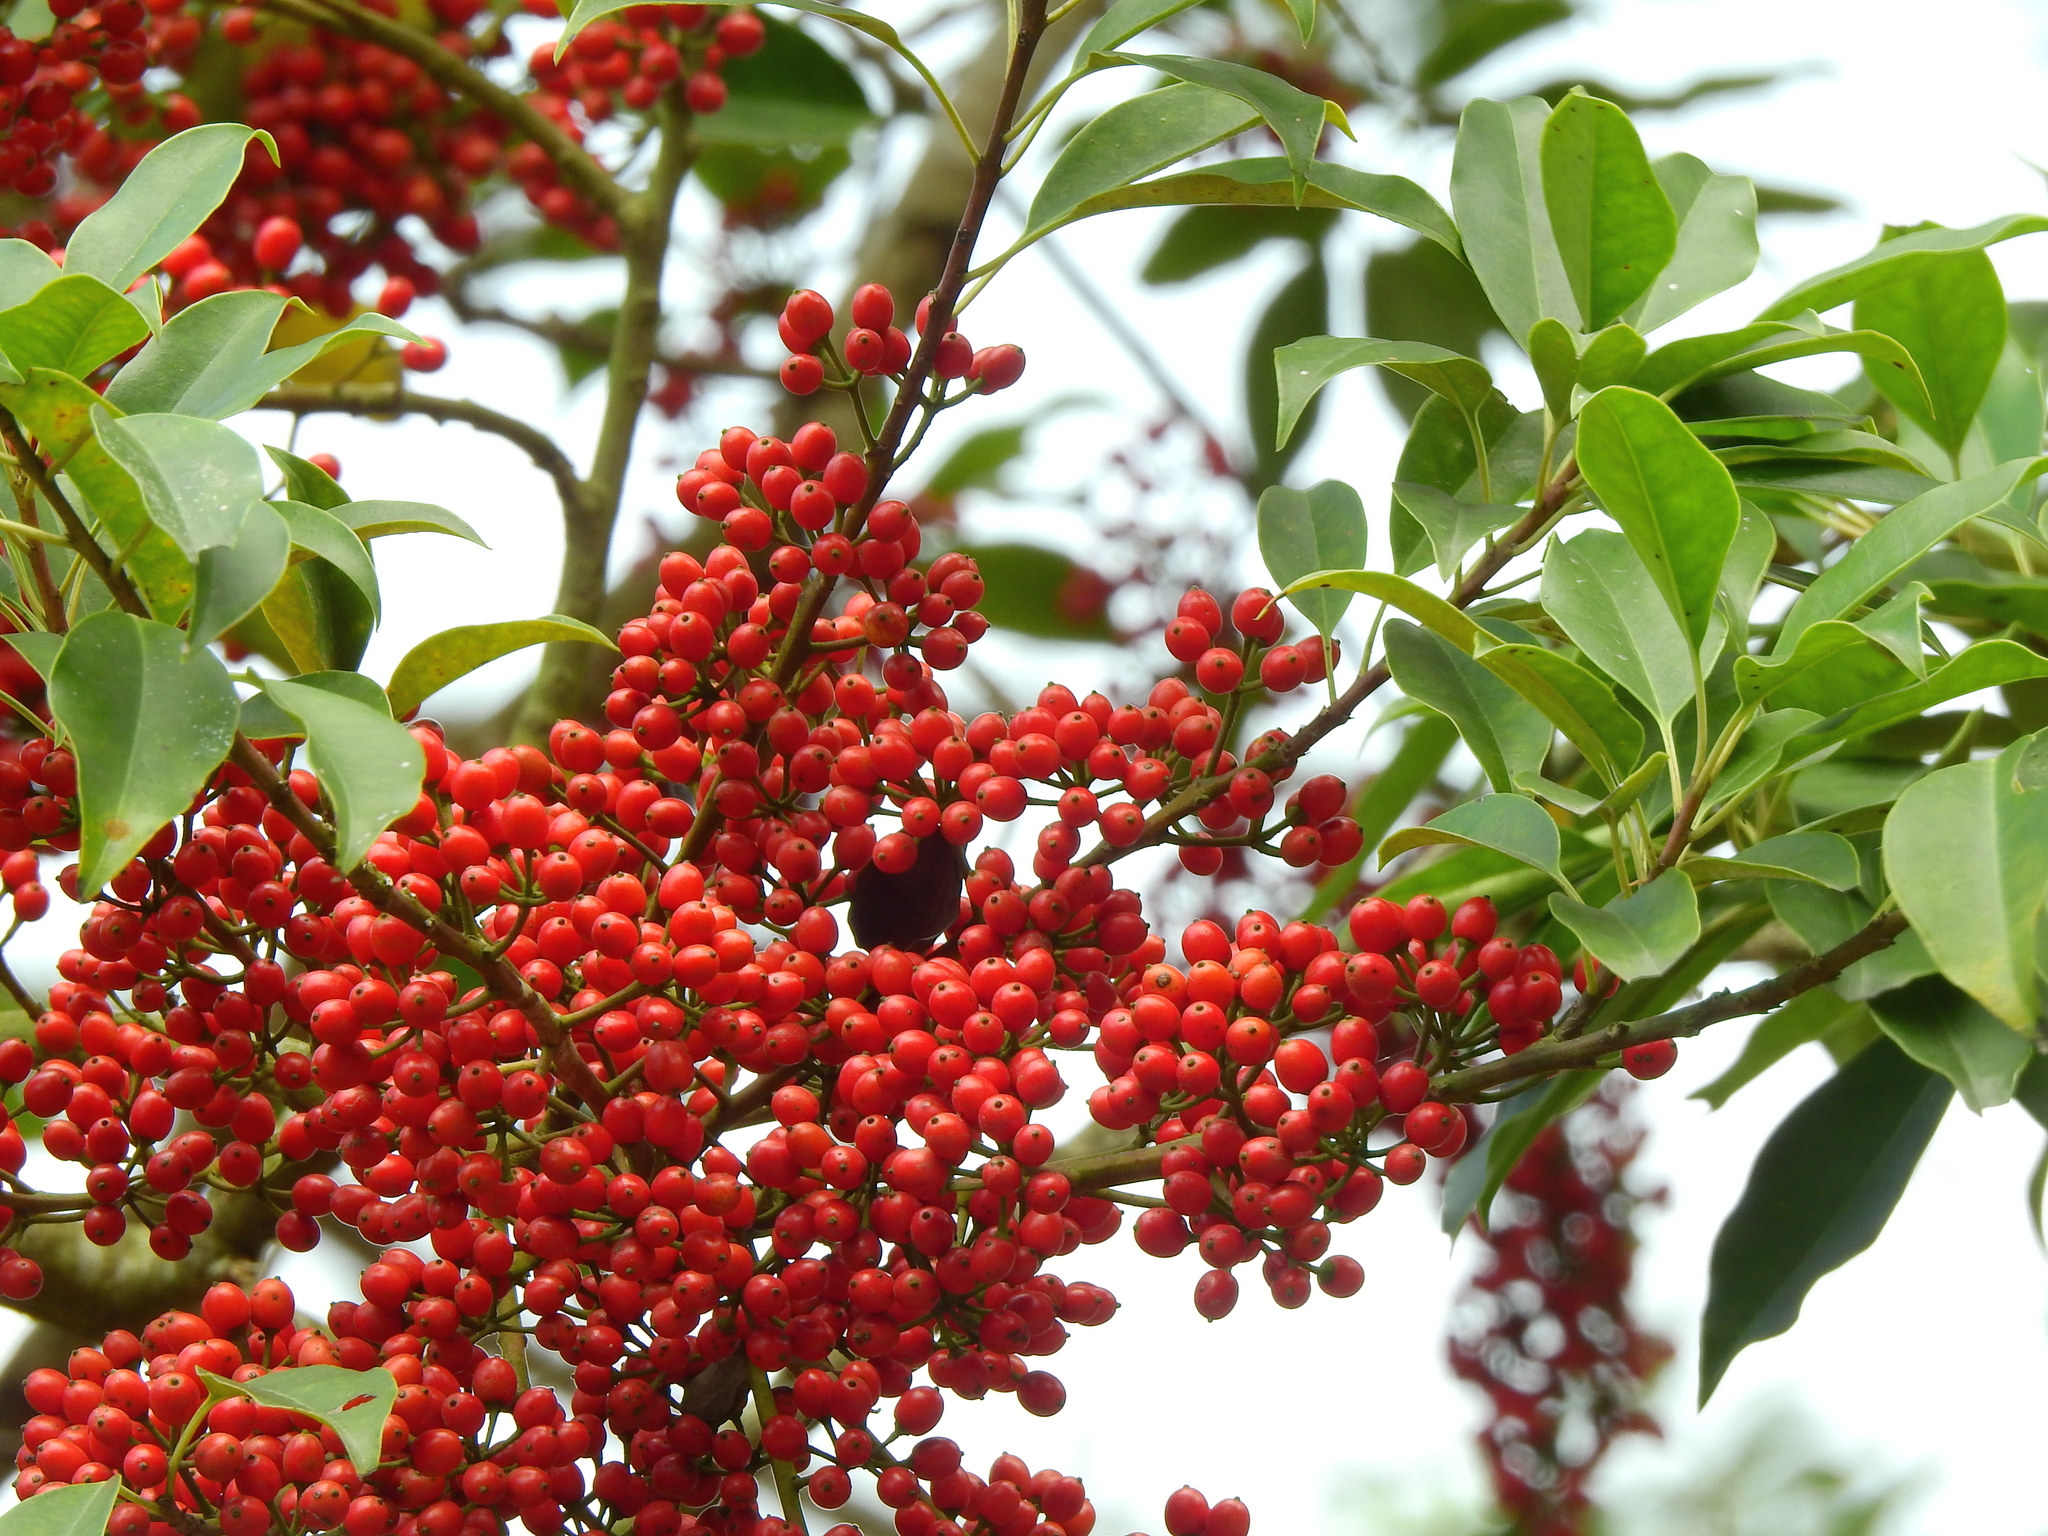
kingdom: Plantae
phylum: Tracheophyta
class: Magnoliopsida
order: Aquifoliales
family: Aquifoliaceae
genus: Ilex
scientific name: Ilex rotunda
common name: Kurogane holly
